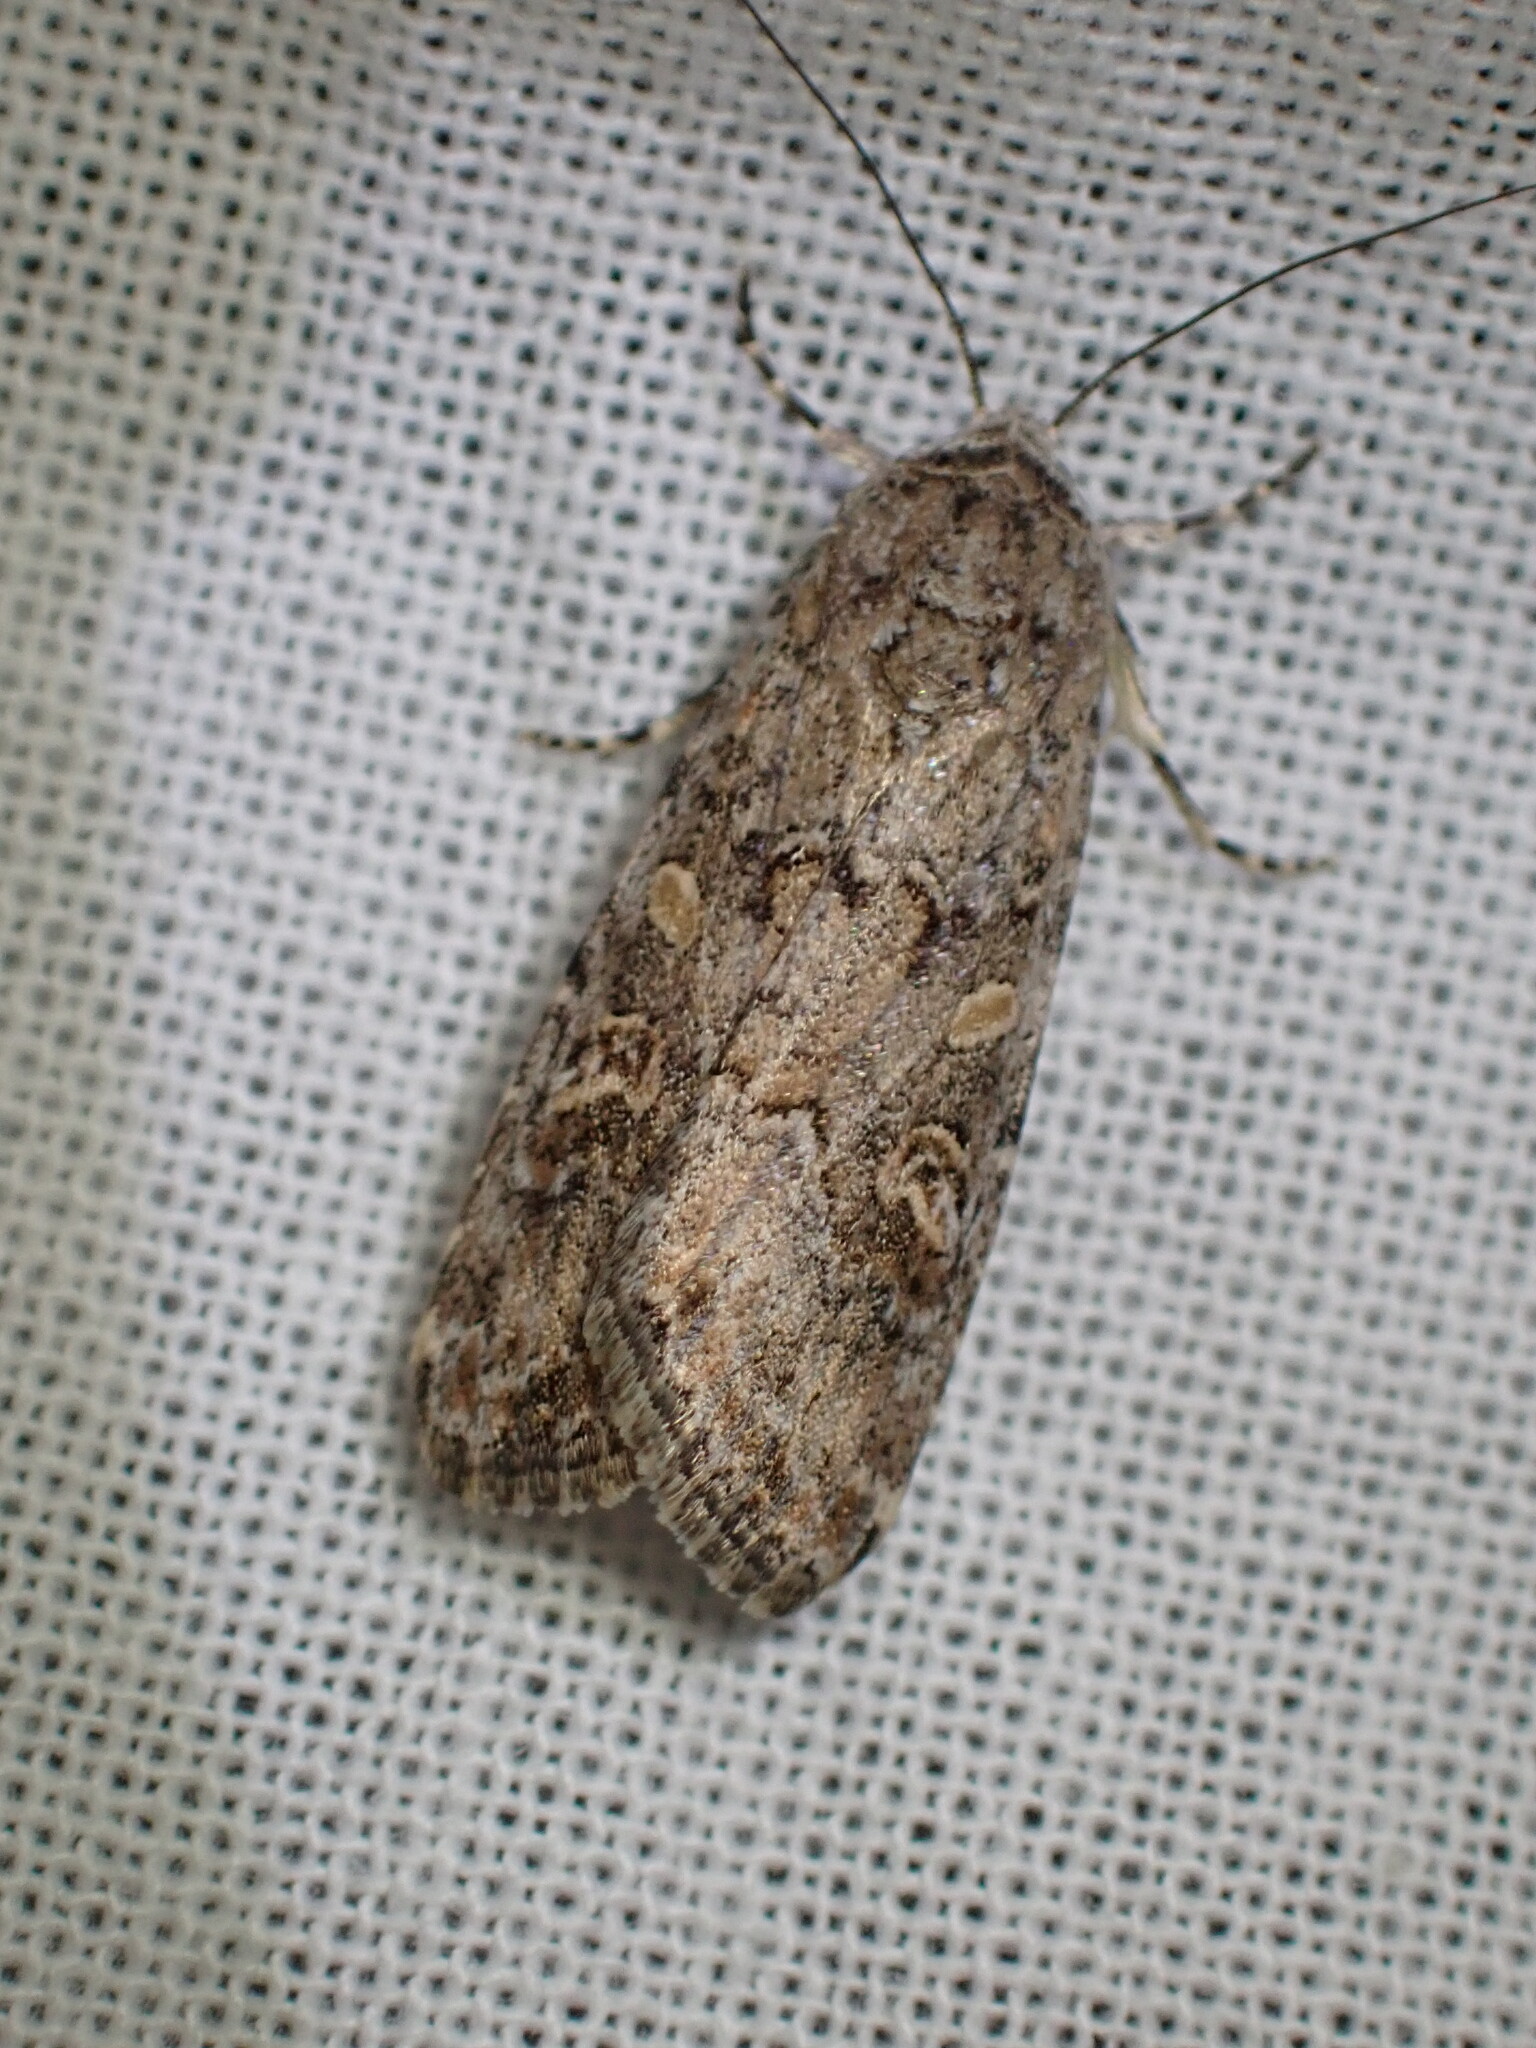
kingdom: Animalia
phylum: Arthropoda
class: Insecta
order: Lepidoptera
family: Noctuidae
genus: Spodoptera
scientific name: Spodoptera exigua
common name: Beet armyworm
